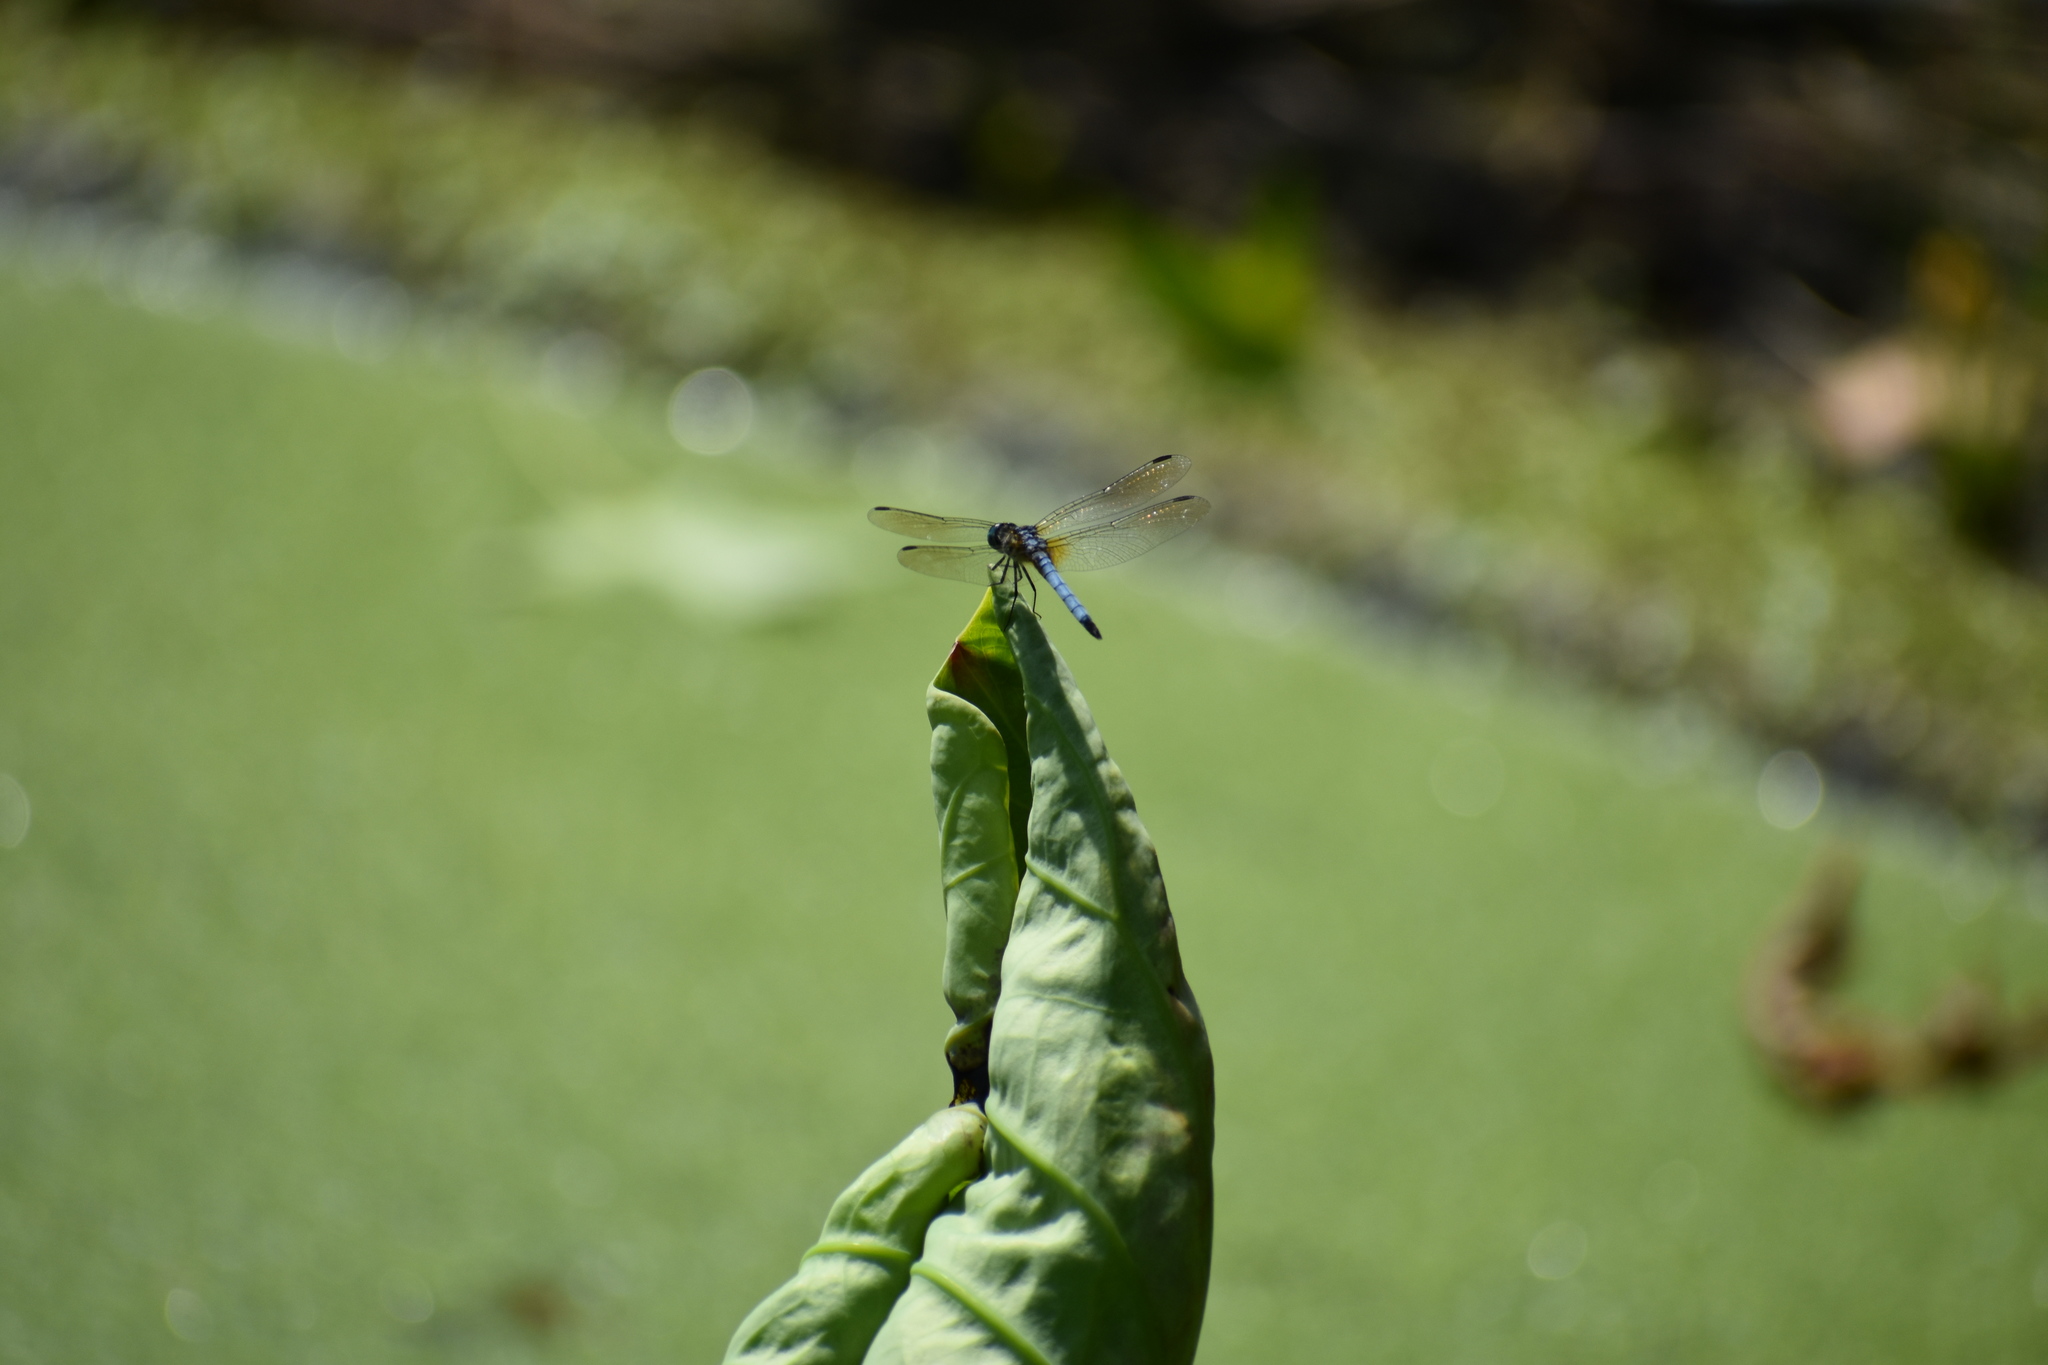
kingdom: Animalia
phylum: Arthropoda
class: Insecta
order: Odonata
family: Libellulidae
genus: Pachydiplax
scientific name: Pachydiplax longipennis
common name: Blue dasher
